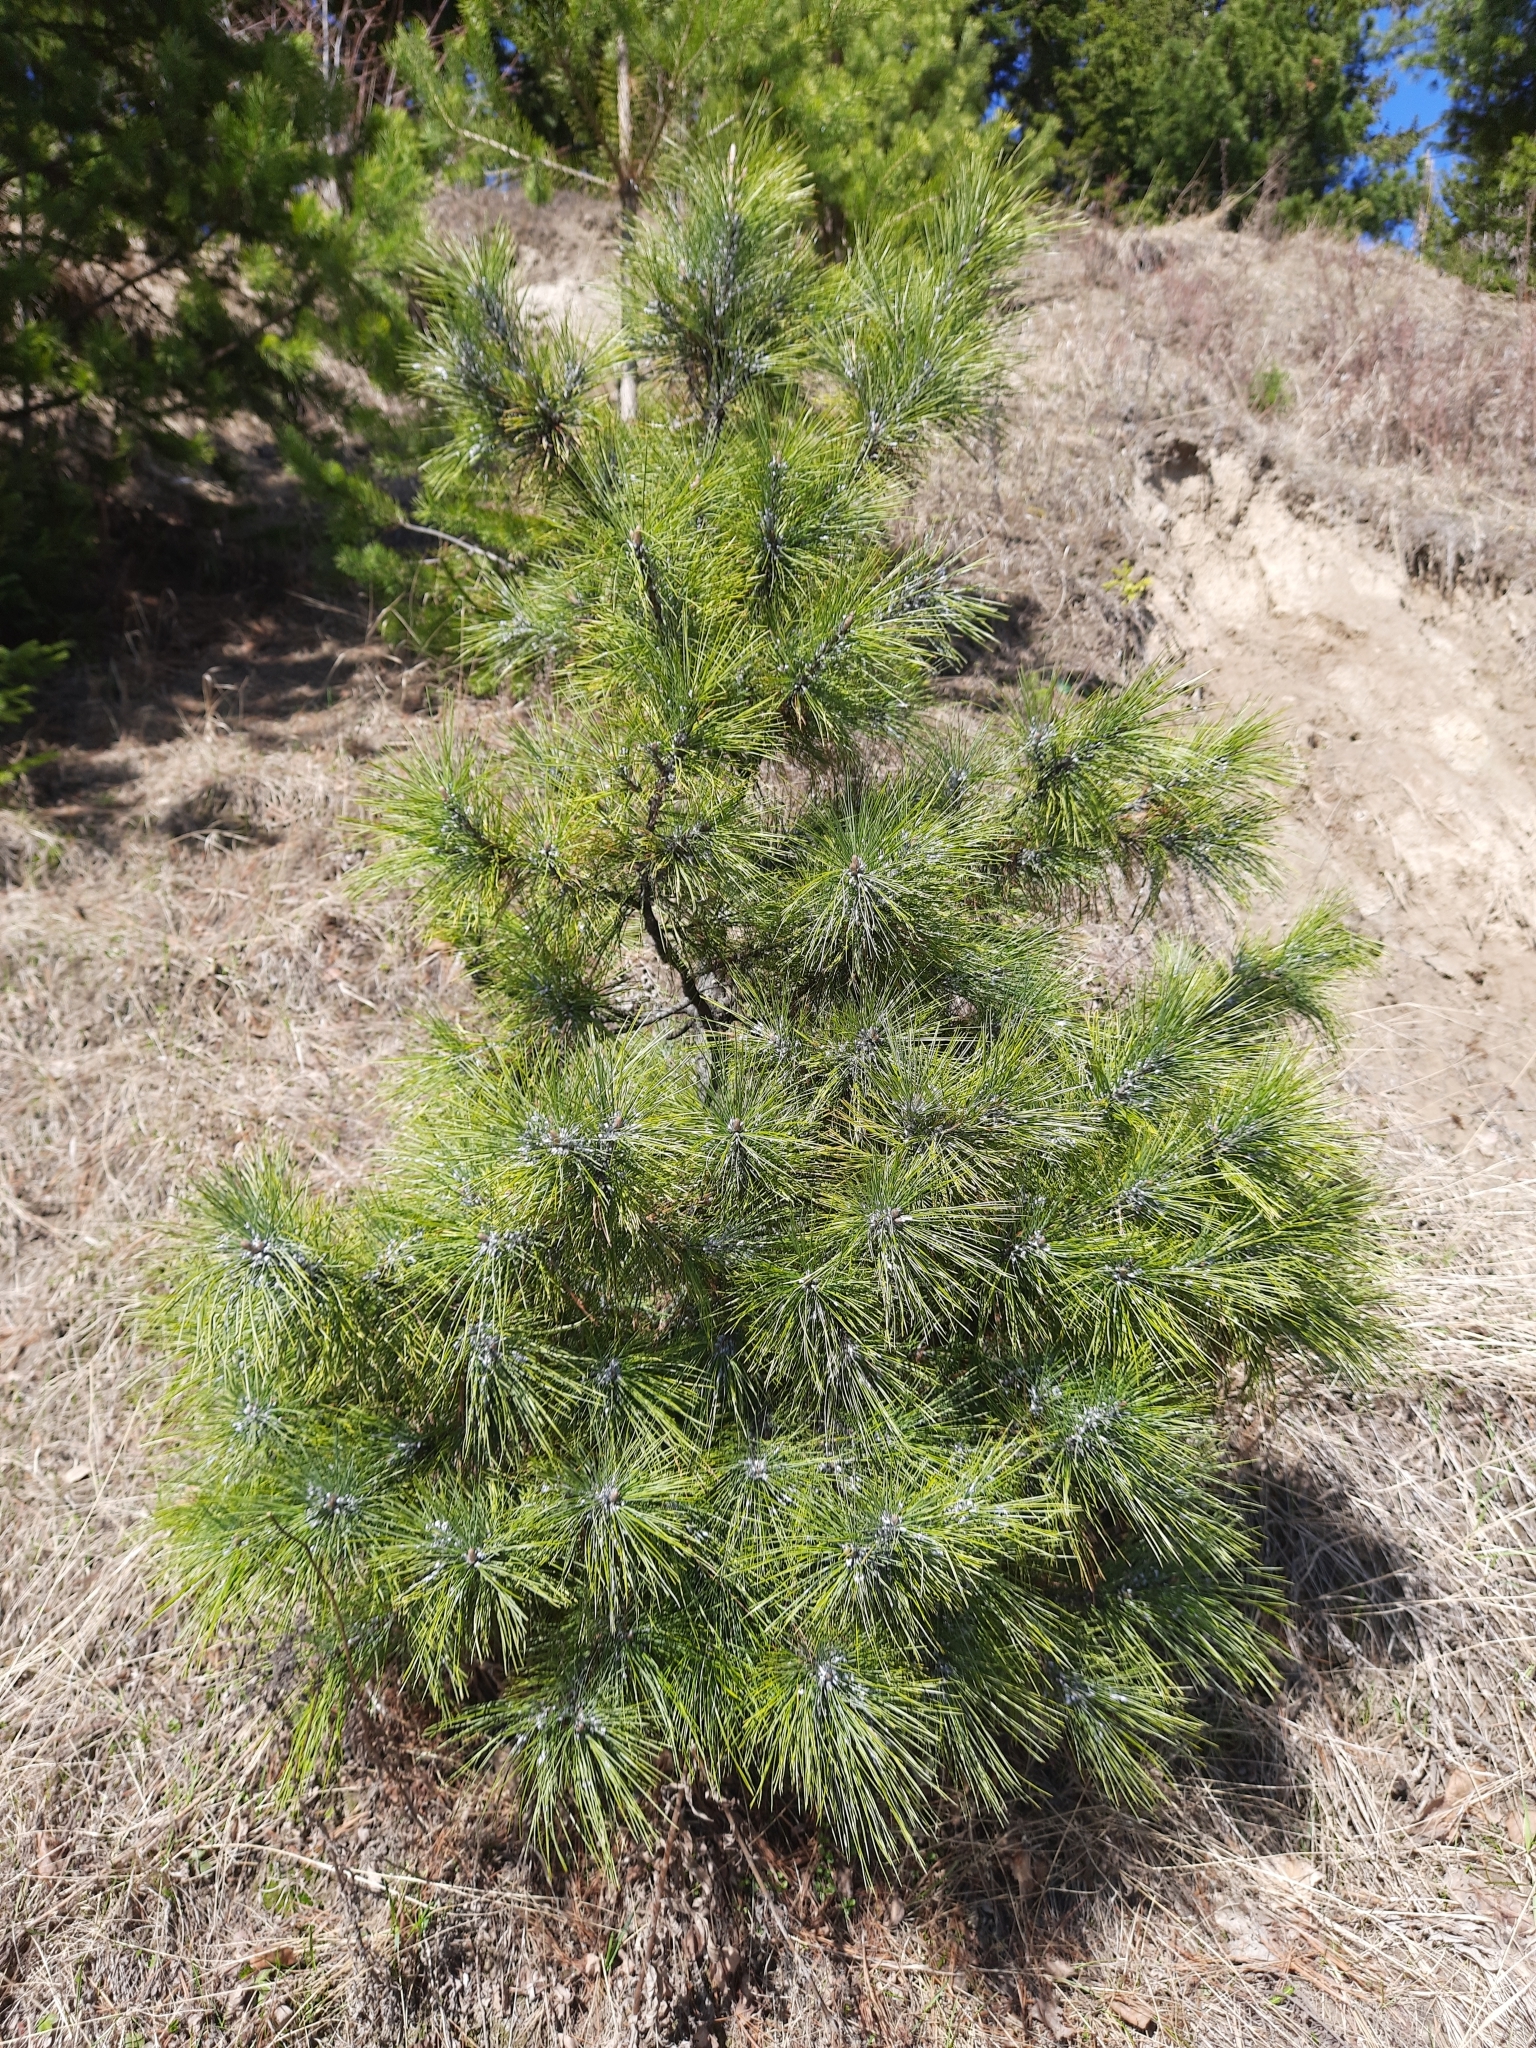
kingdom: Plantae
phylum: Tracheophyta
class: Pinopsida
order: Pinales
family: Pinaceae
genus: Pinus
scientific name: Pinus sibirica
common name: Siberian pine
